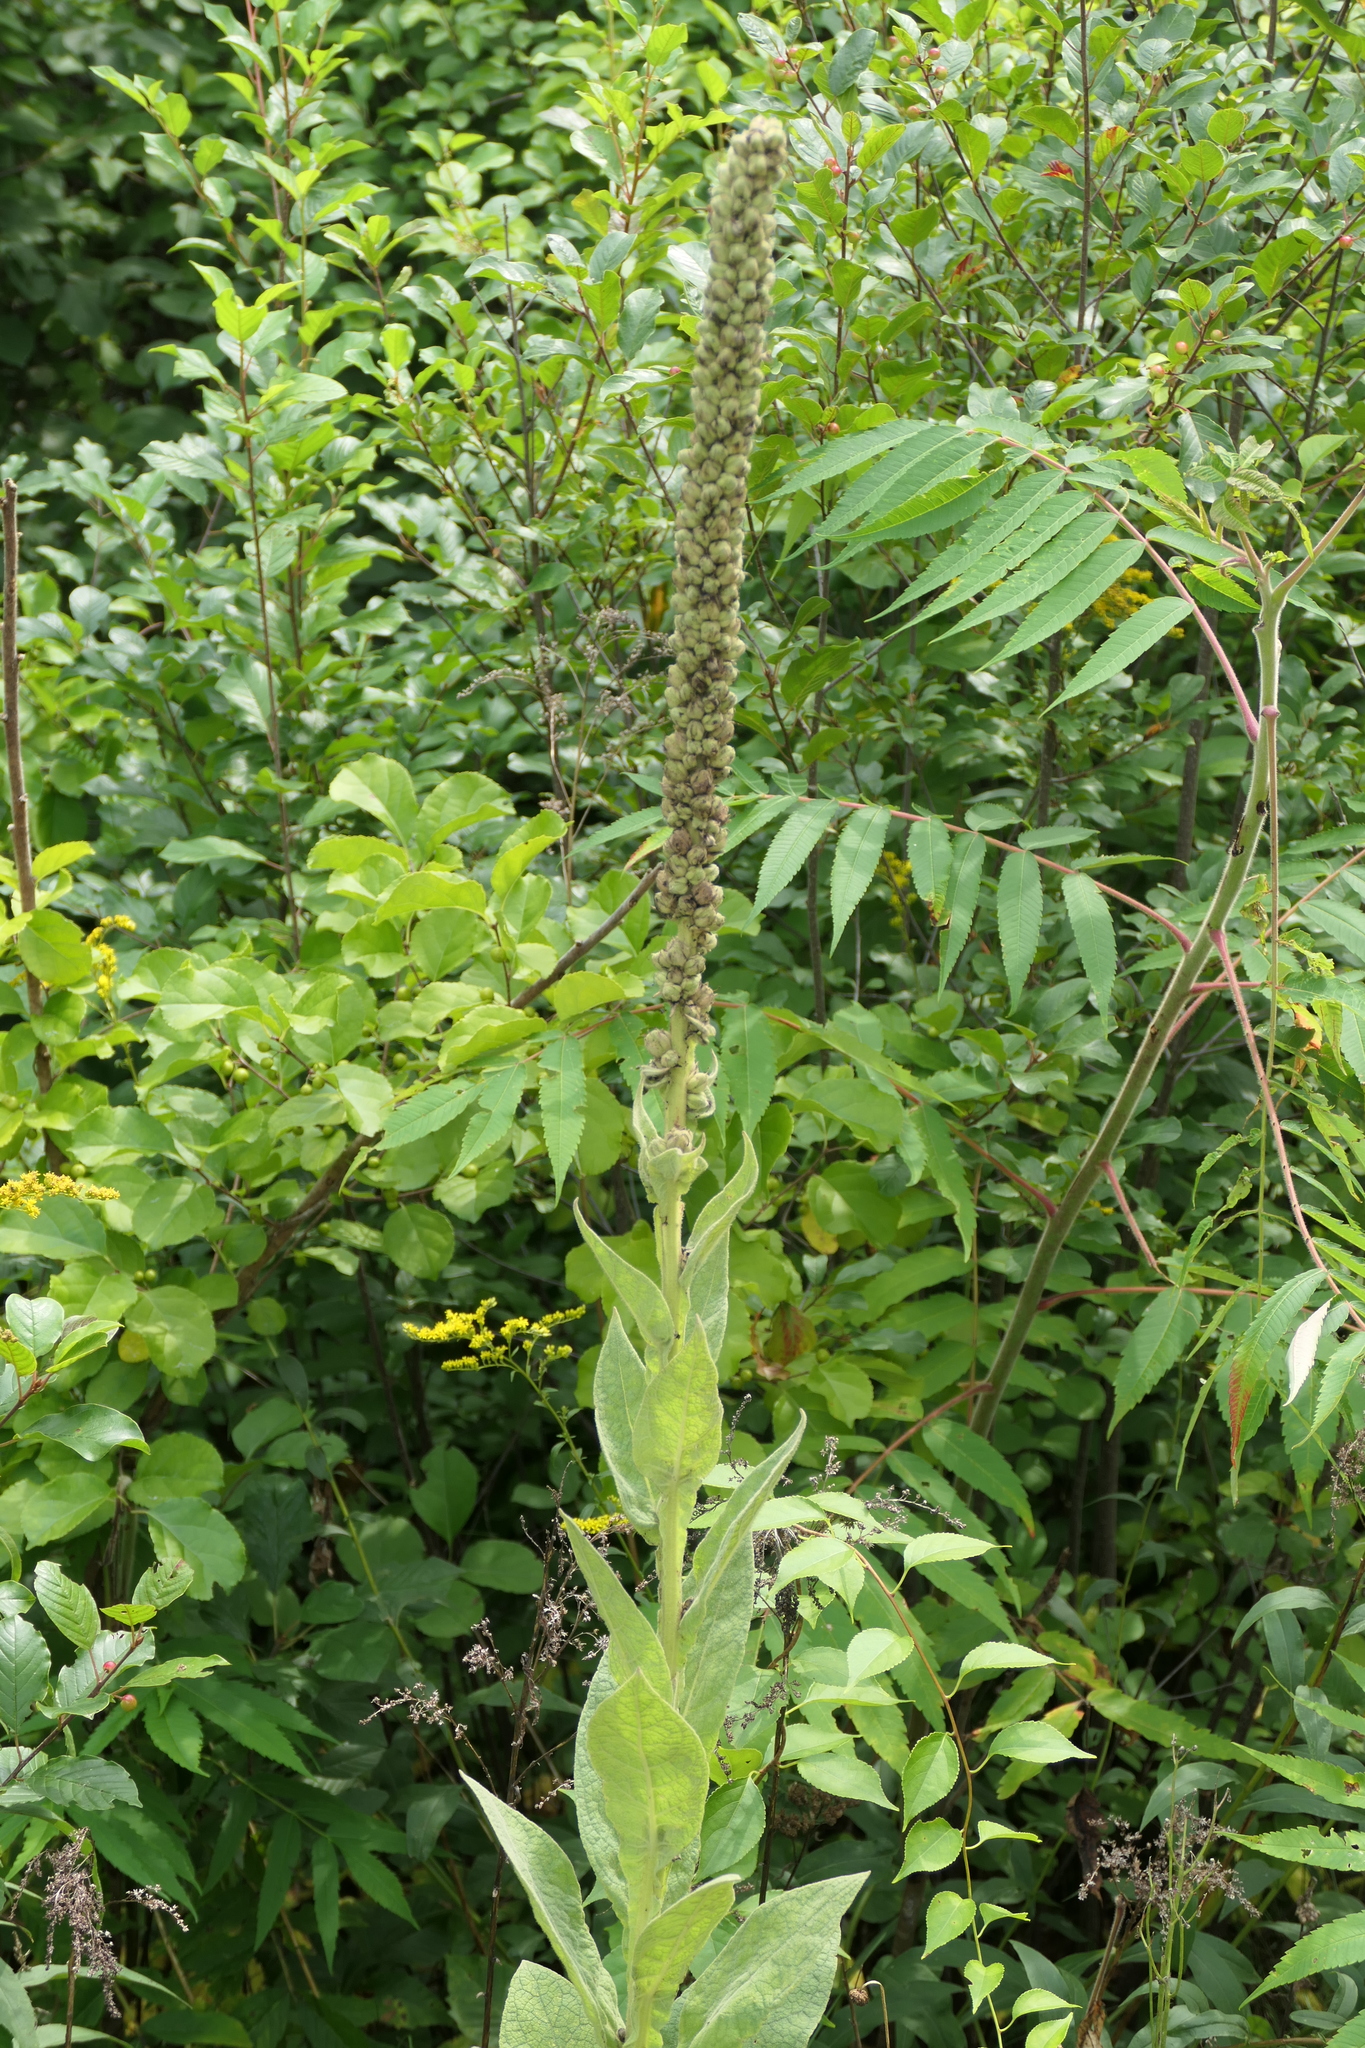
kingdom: Plantae
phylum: Tracheophyta
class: Magnoliopsida
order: Lamiales
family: Scrophulariaceae
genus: Verbascum
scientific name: Verbascum thapsus
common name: Common mullein
